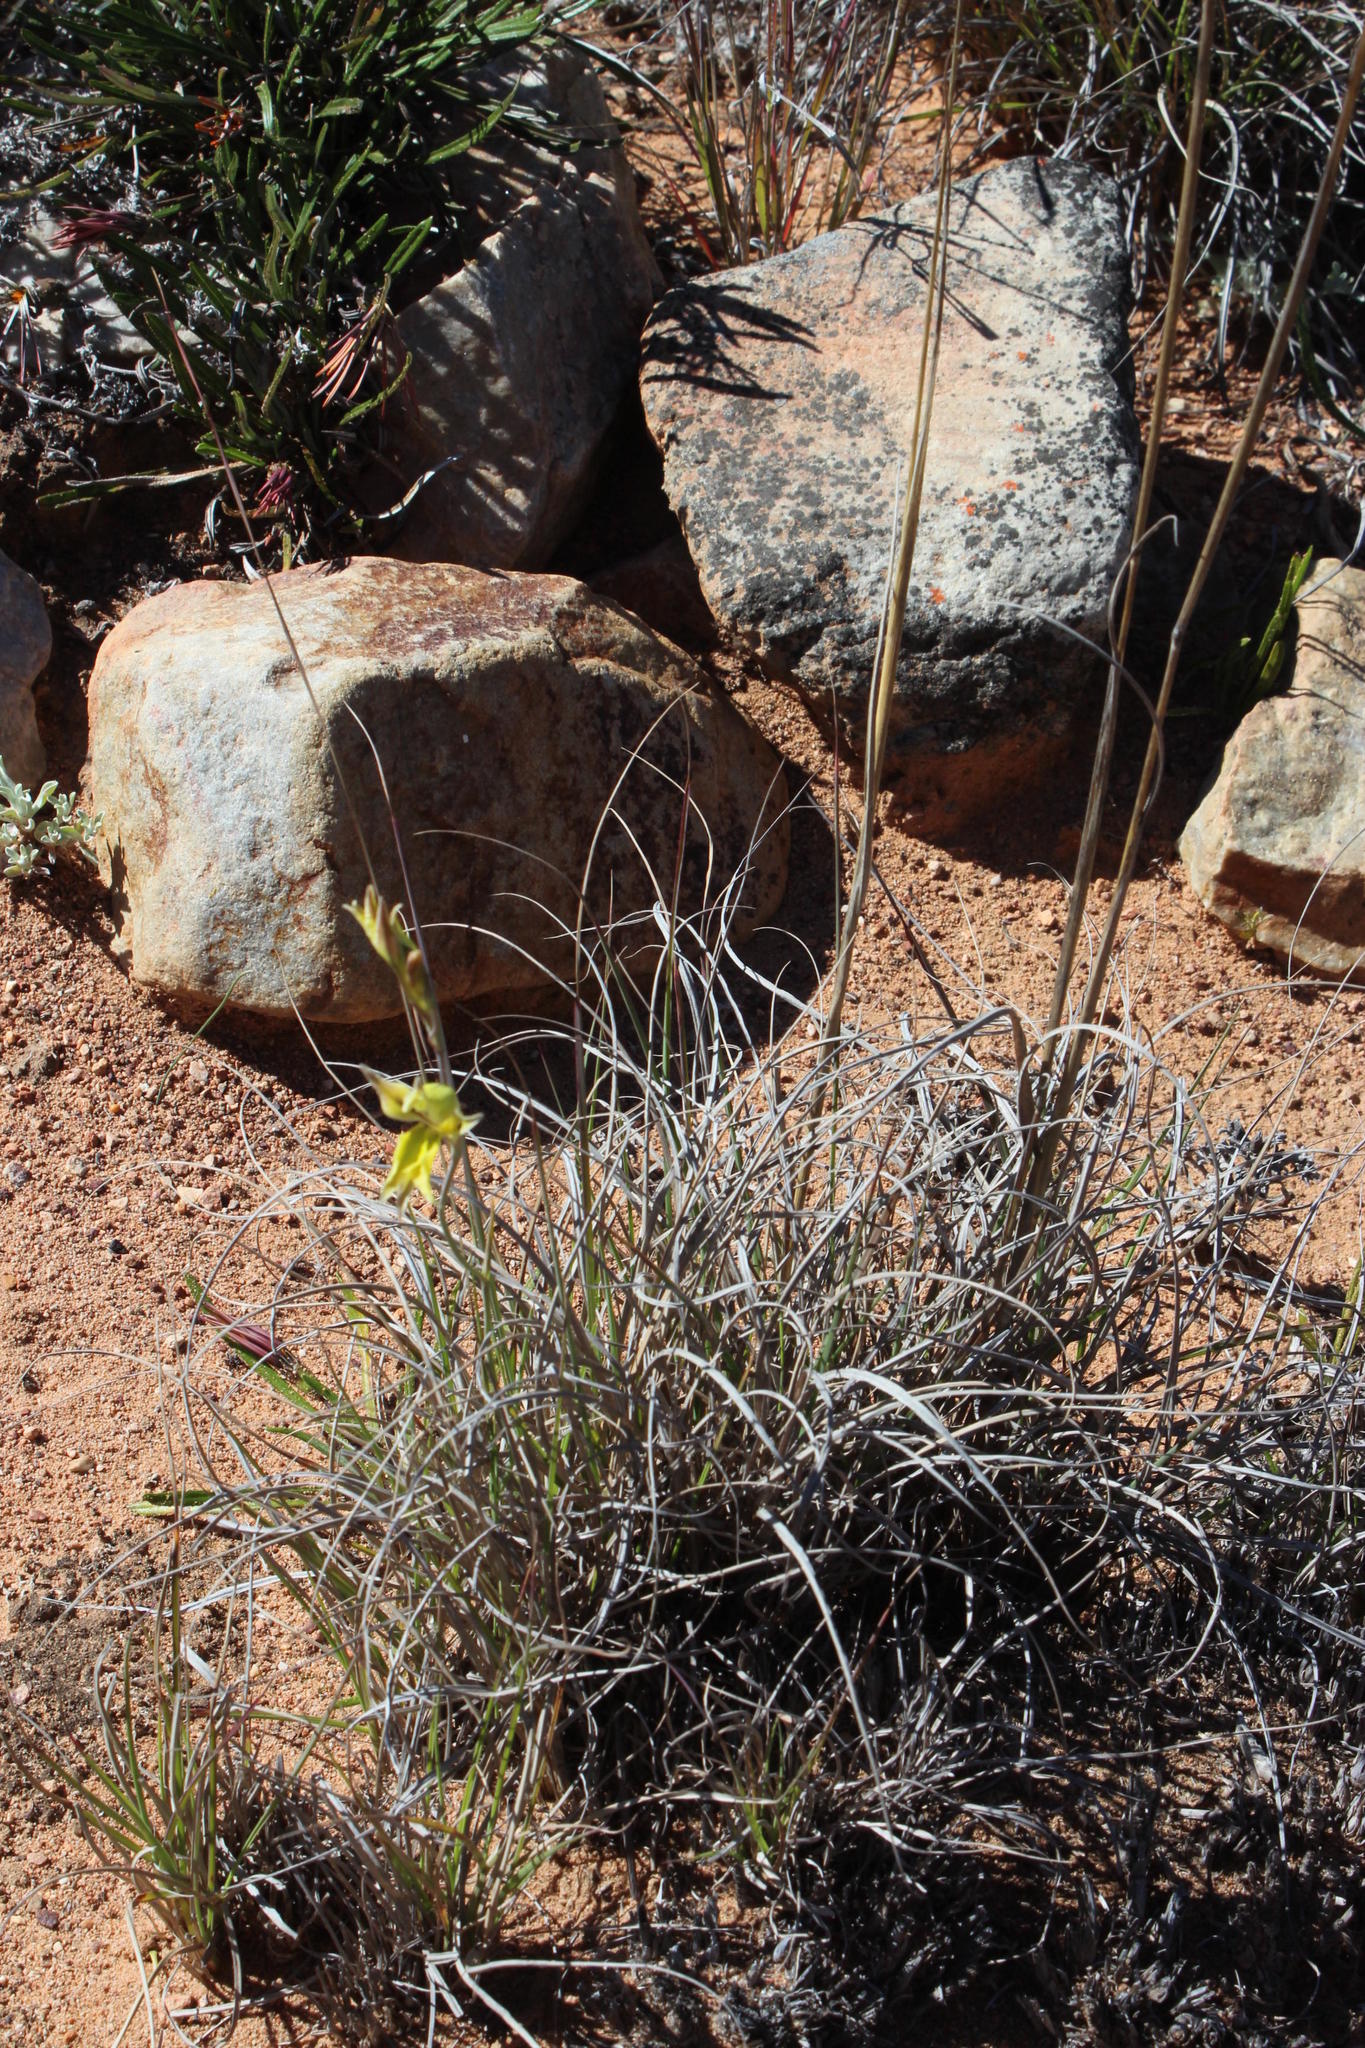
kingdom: Plantae
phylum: Tracheophyta
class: Liliopsida
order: Asparagales
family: Iridaceae
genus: Gladiolus
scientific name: Gladiolus carinatus
